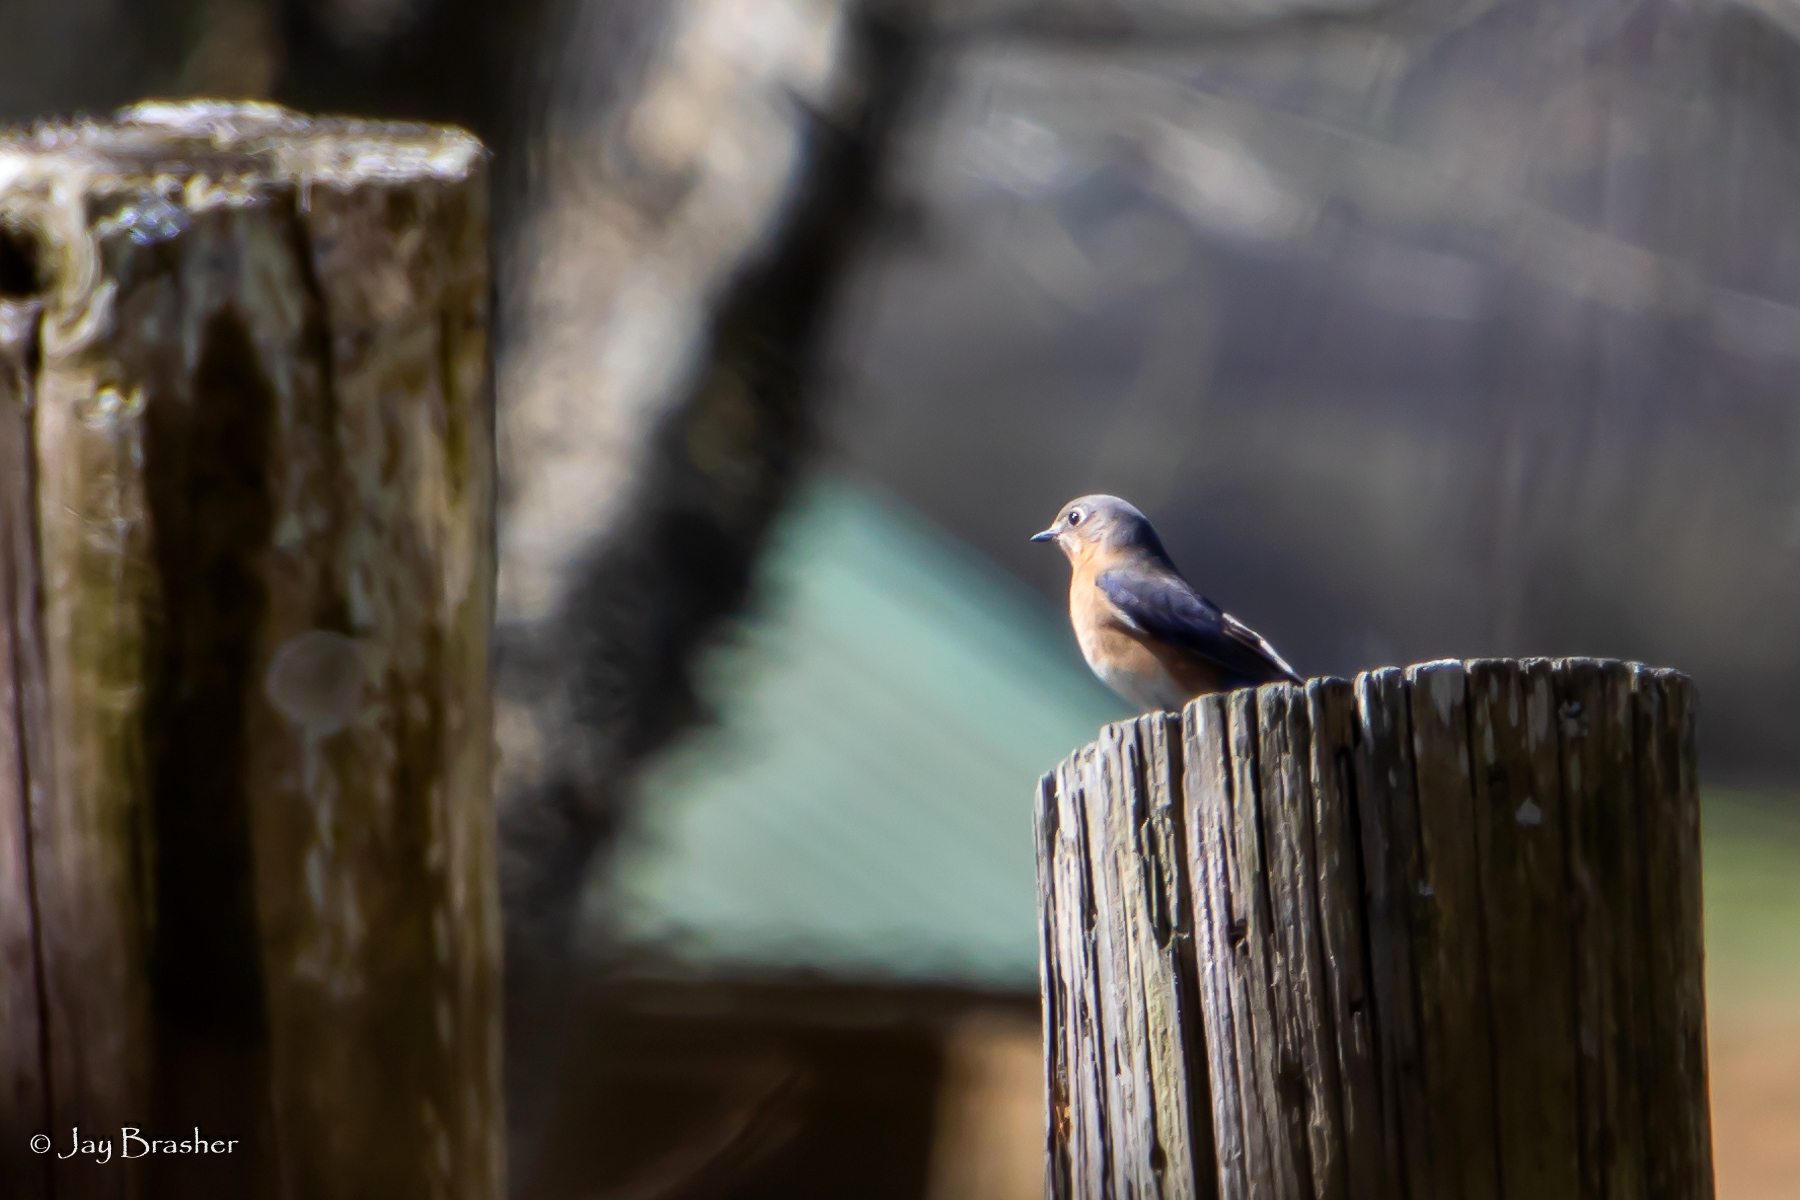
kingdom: Animalia
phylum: Chordata
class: Aves
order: Passeriformes
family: Turdidae
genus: Sialia
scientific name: Sialia sialis
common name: Eastern bluebird
